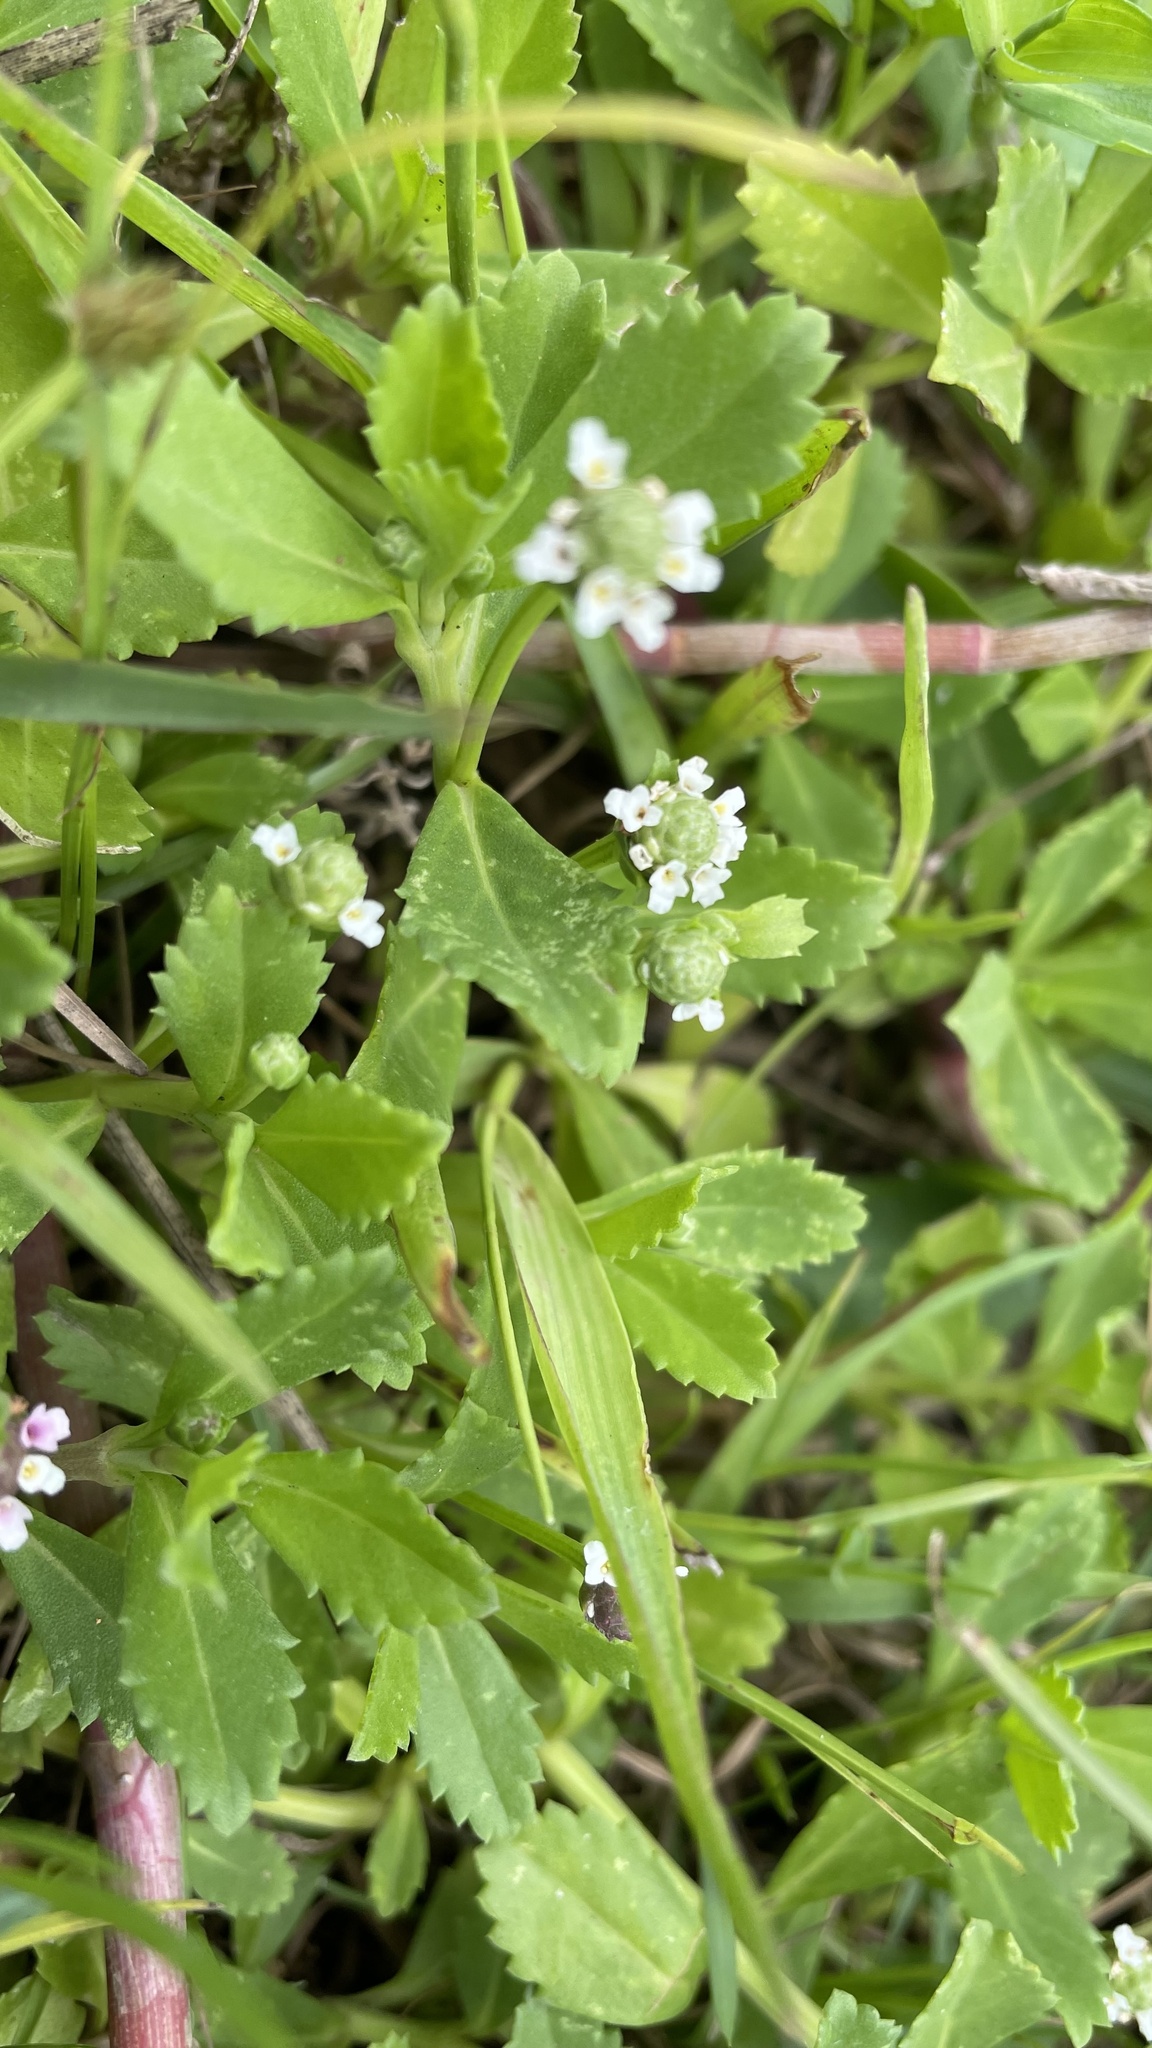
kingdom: Plantae
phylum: Tracheophyta
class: Magnoliopsida
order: Lamiales
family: Verbenaceae
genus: Phyla
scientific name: Phyla nodiflora
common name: Frogfruit
